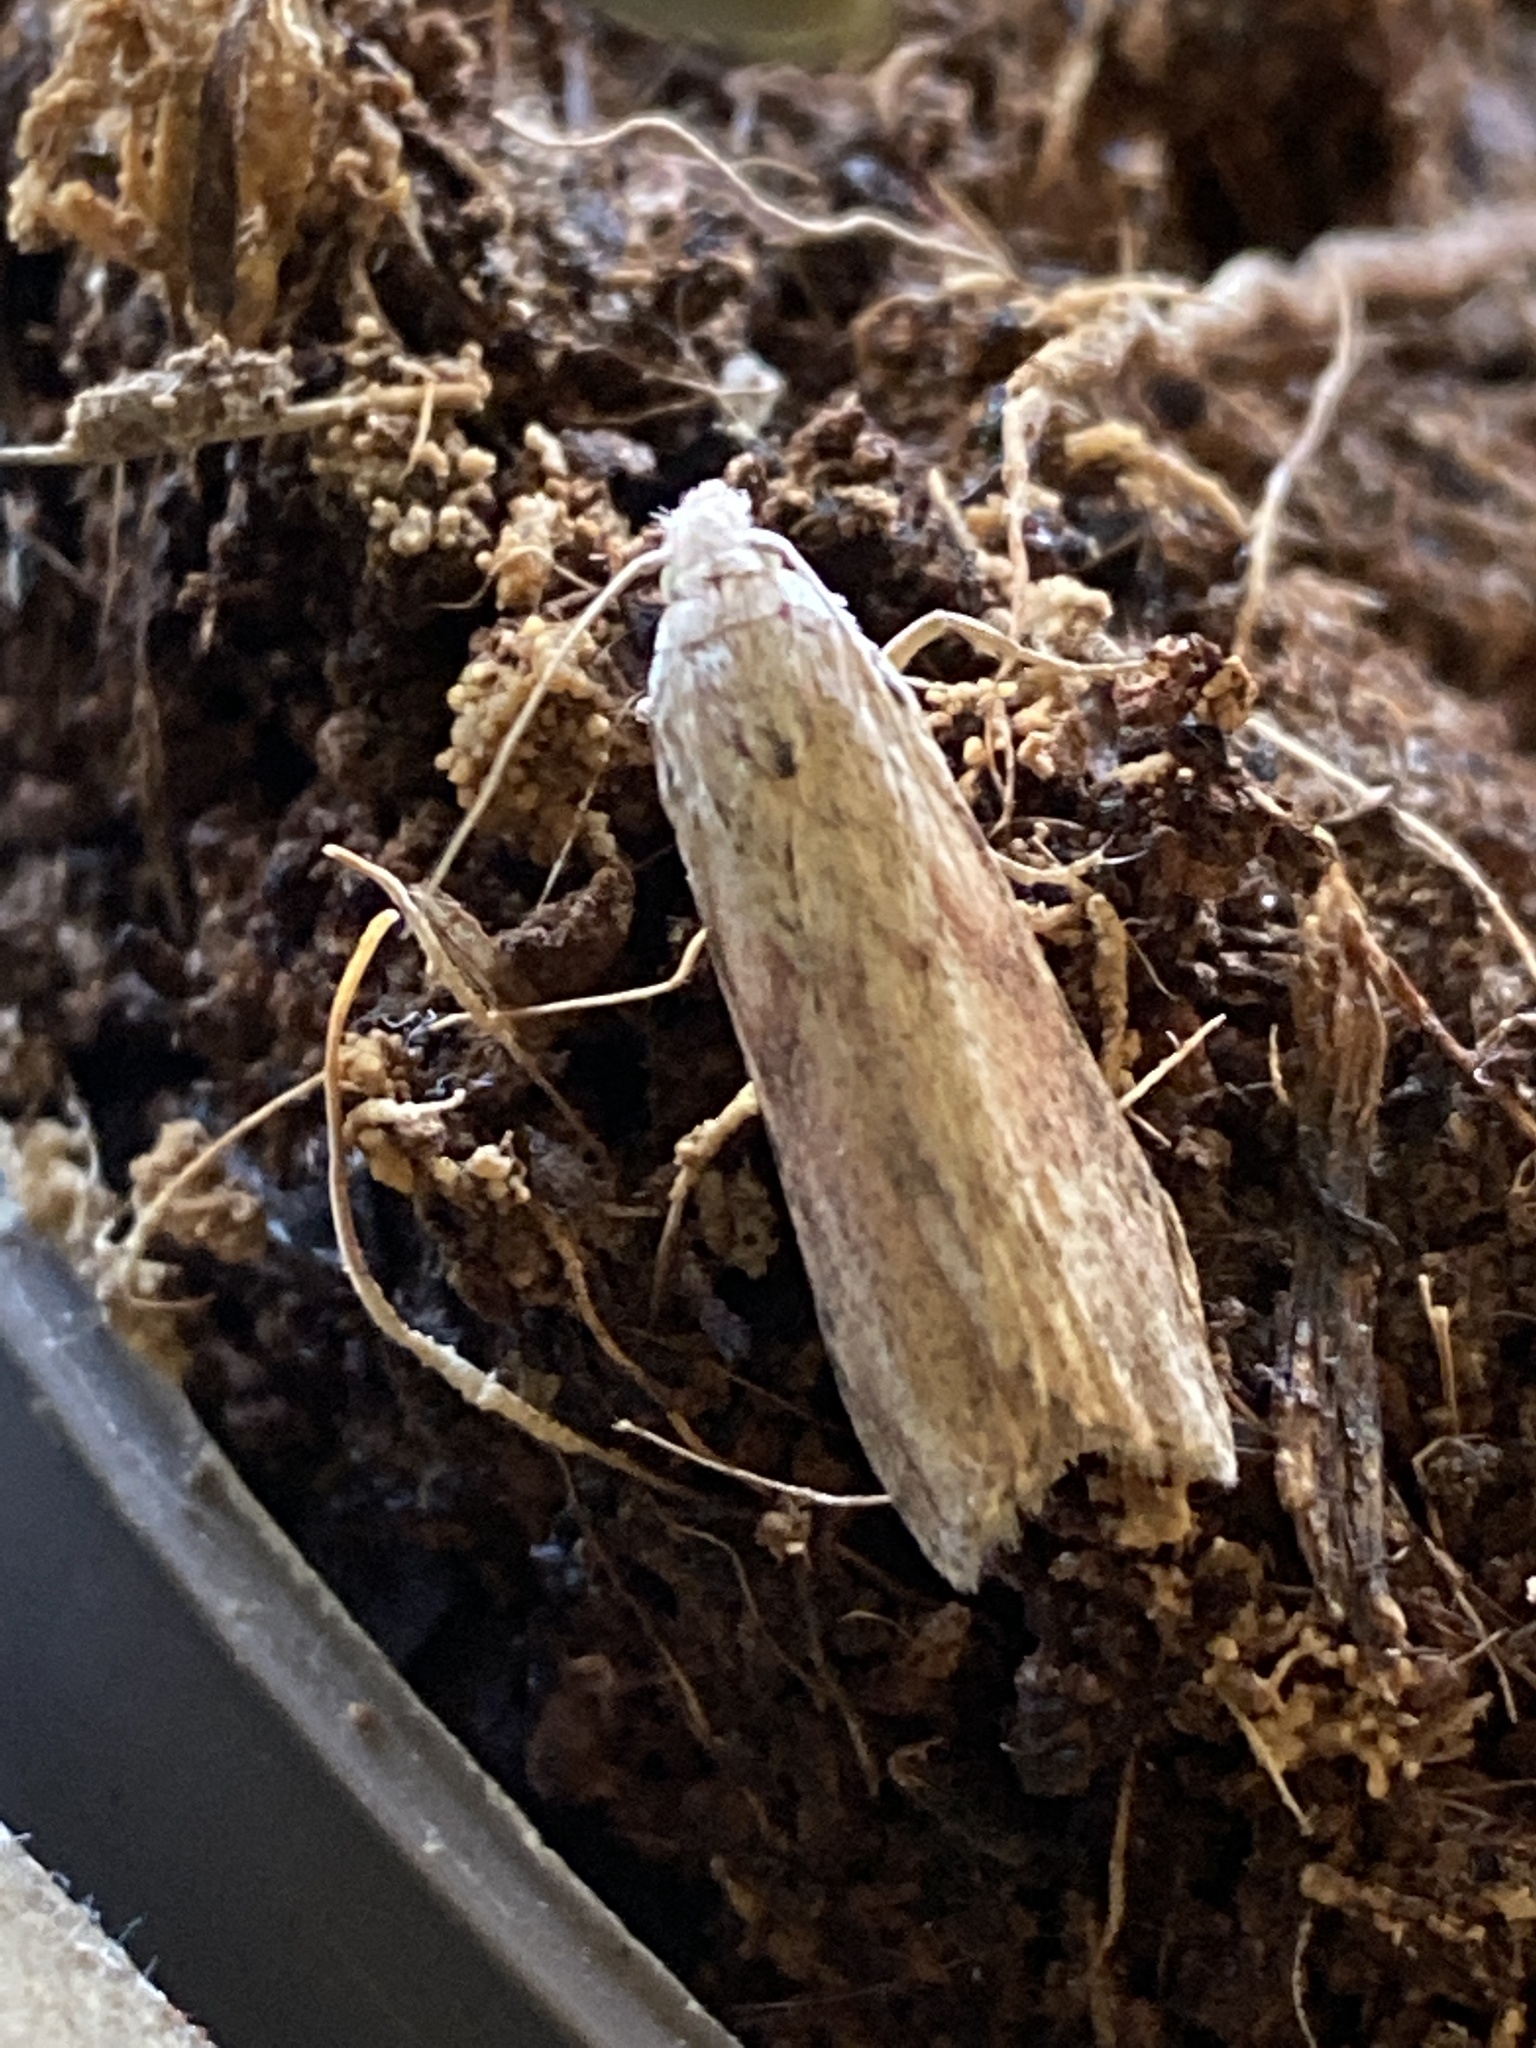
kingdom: Animalia
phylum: Arthropoda
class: Insecta
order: Lepidoptera
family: Pyralidae
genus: Aphomia
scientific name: Aphomia sociella
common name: Bee moth
